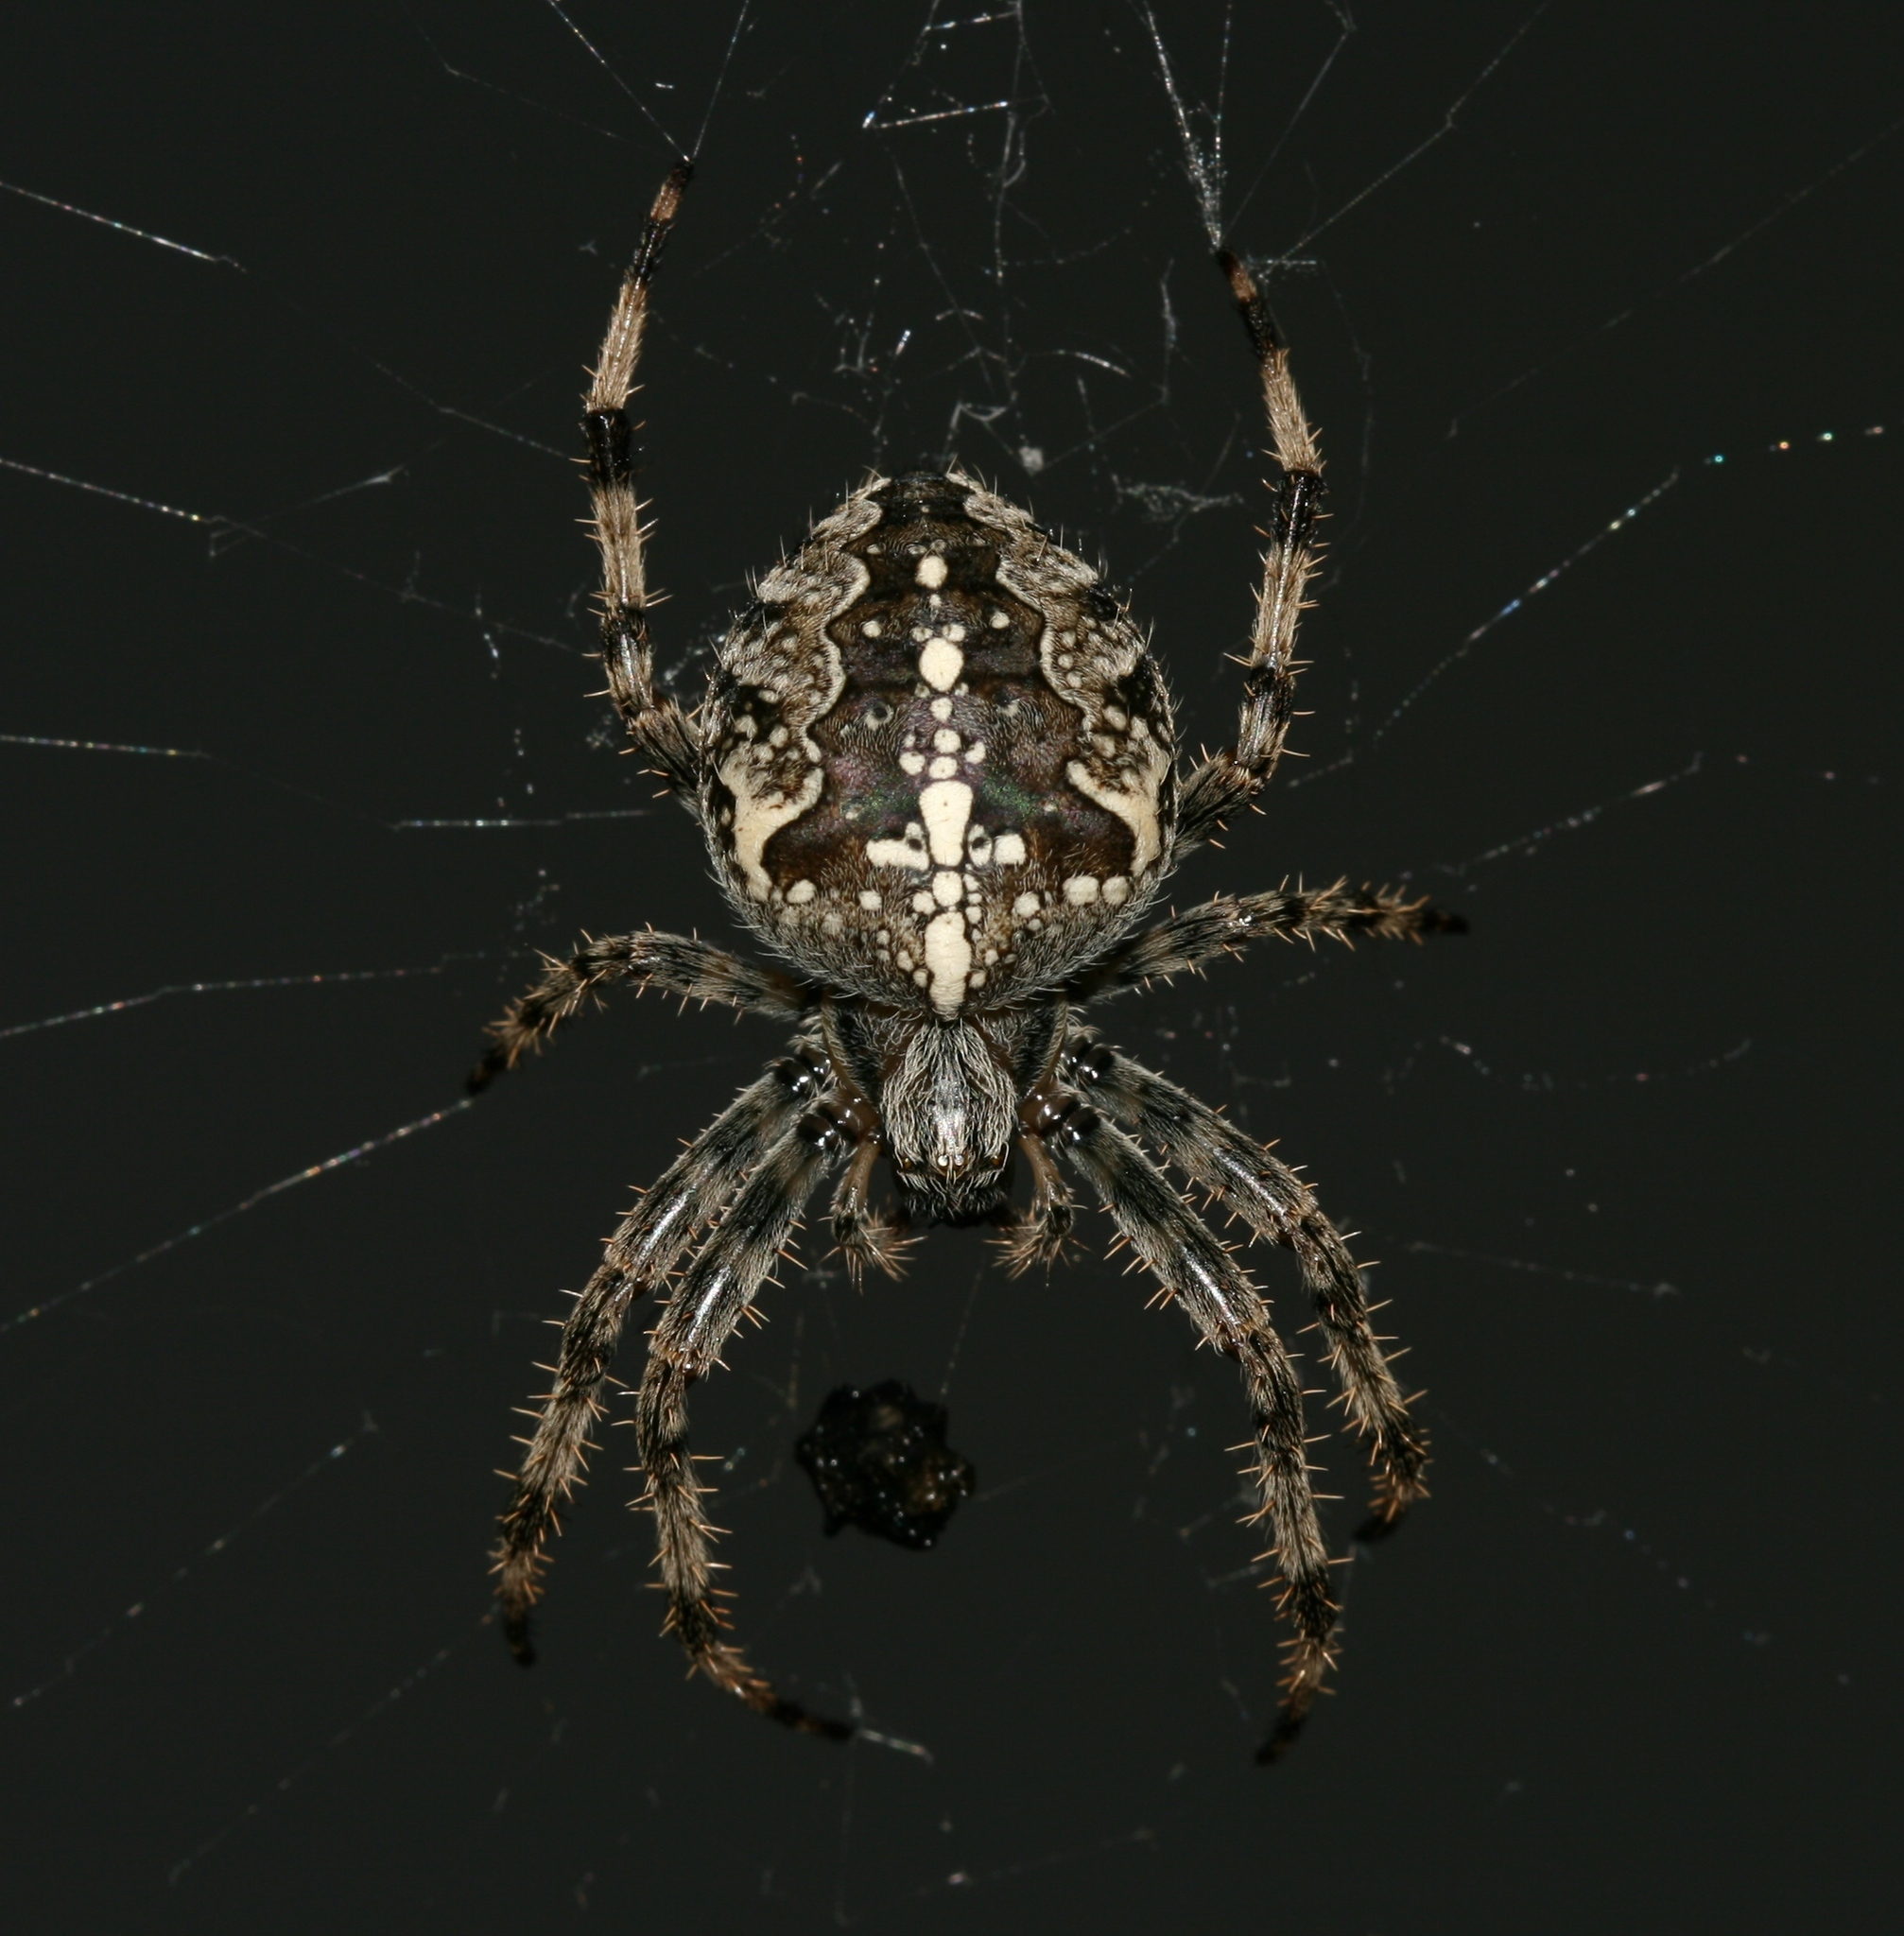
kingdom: Animalia
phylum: Arthropoda
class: Arachnida
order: Araneae
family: Araneidae
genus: Araneus
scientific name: Araneus diadematus
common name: Cross orbweaver
